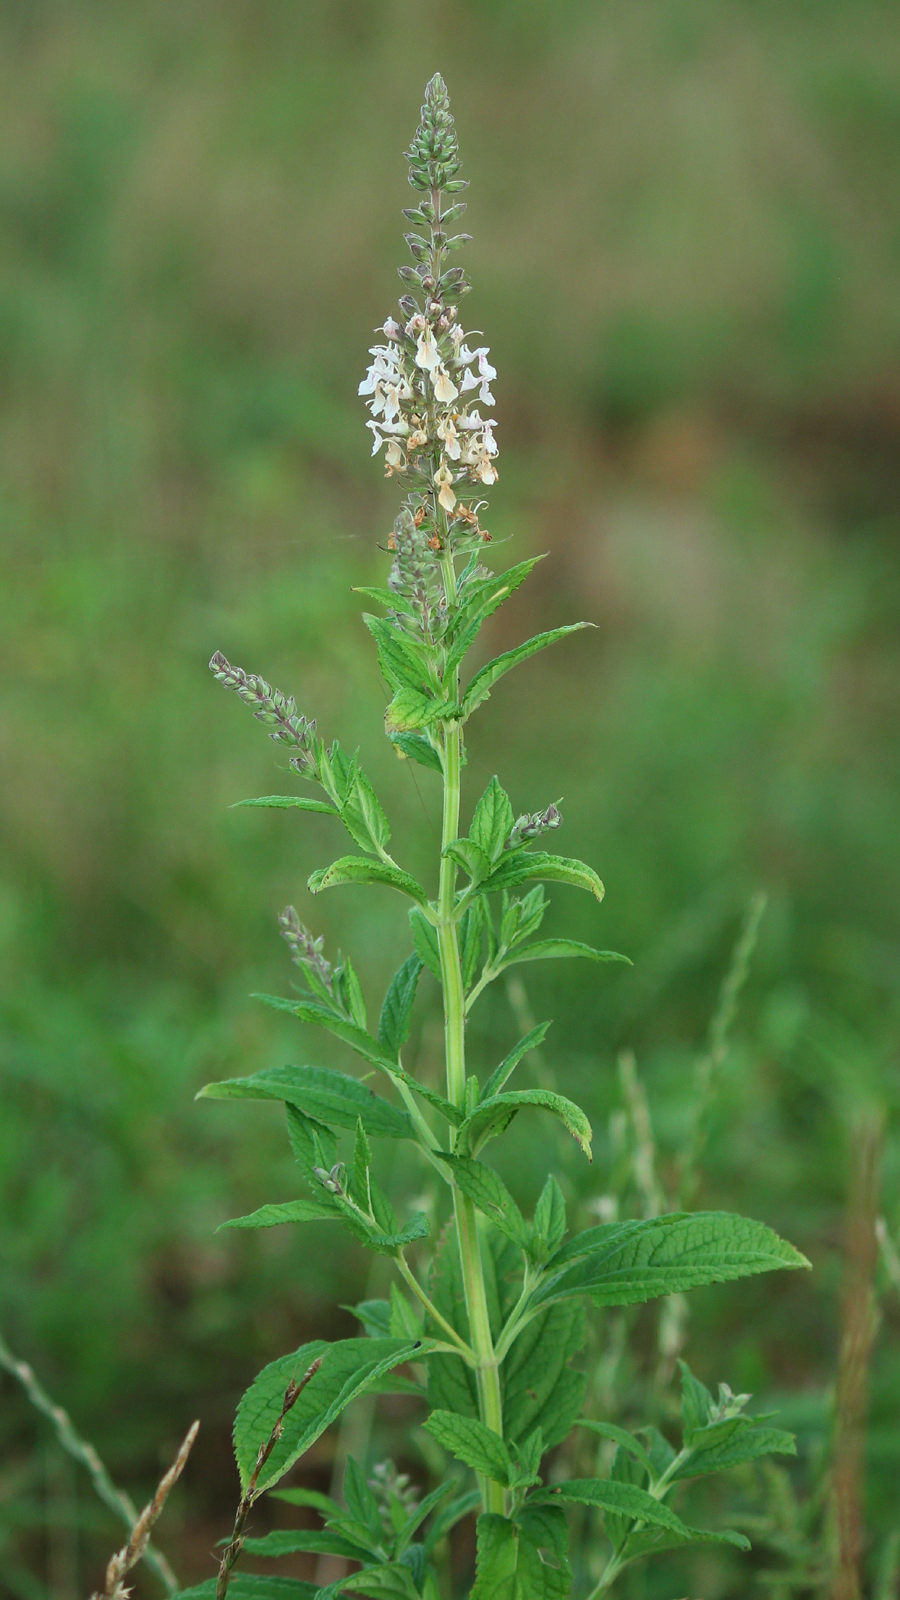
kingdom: Plantae
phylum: Tracheophyta
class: Magnoliopsida
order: Lamiales
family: Lamiaceae
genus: Teucrium
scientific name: Teucrium canadense
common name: American germander
